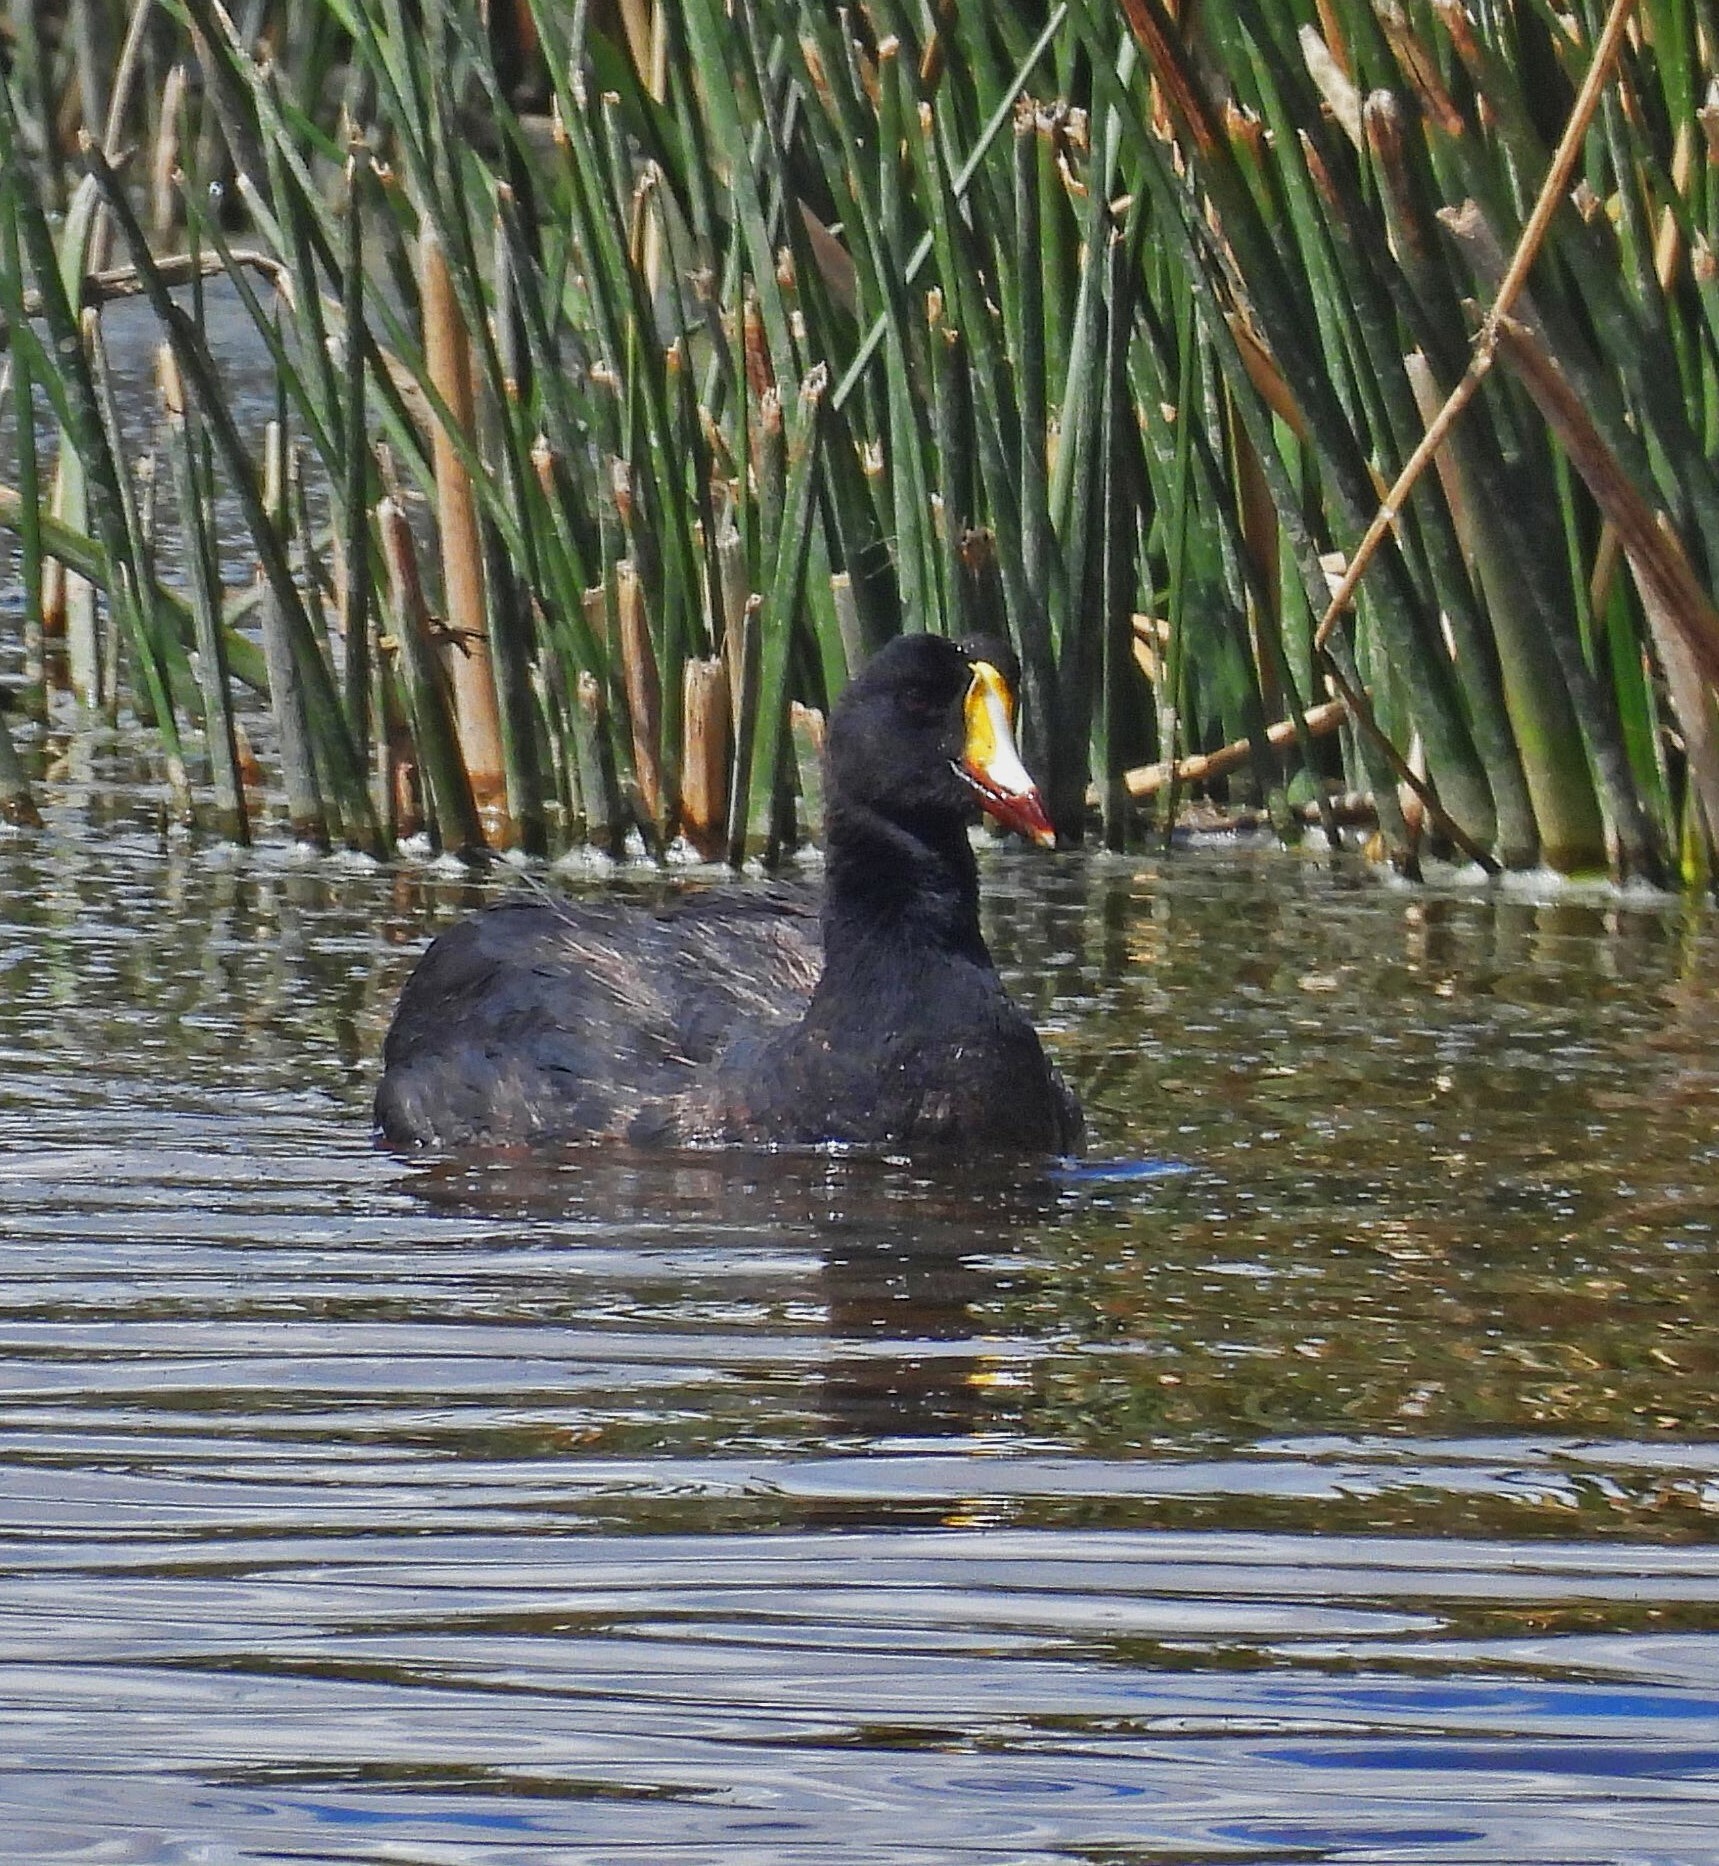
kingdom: Animalia
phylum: Chordata
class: Aves
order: Gruiformes
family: Rallidae
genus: Fulica
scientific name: Fulica gigantea
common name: Giant coot
